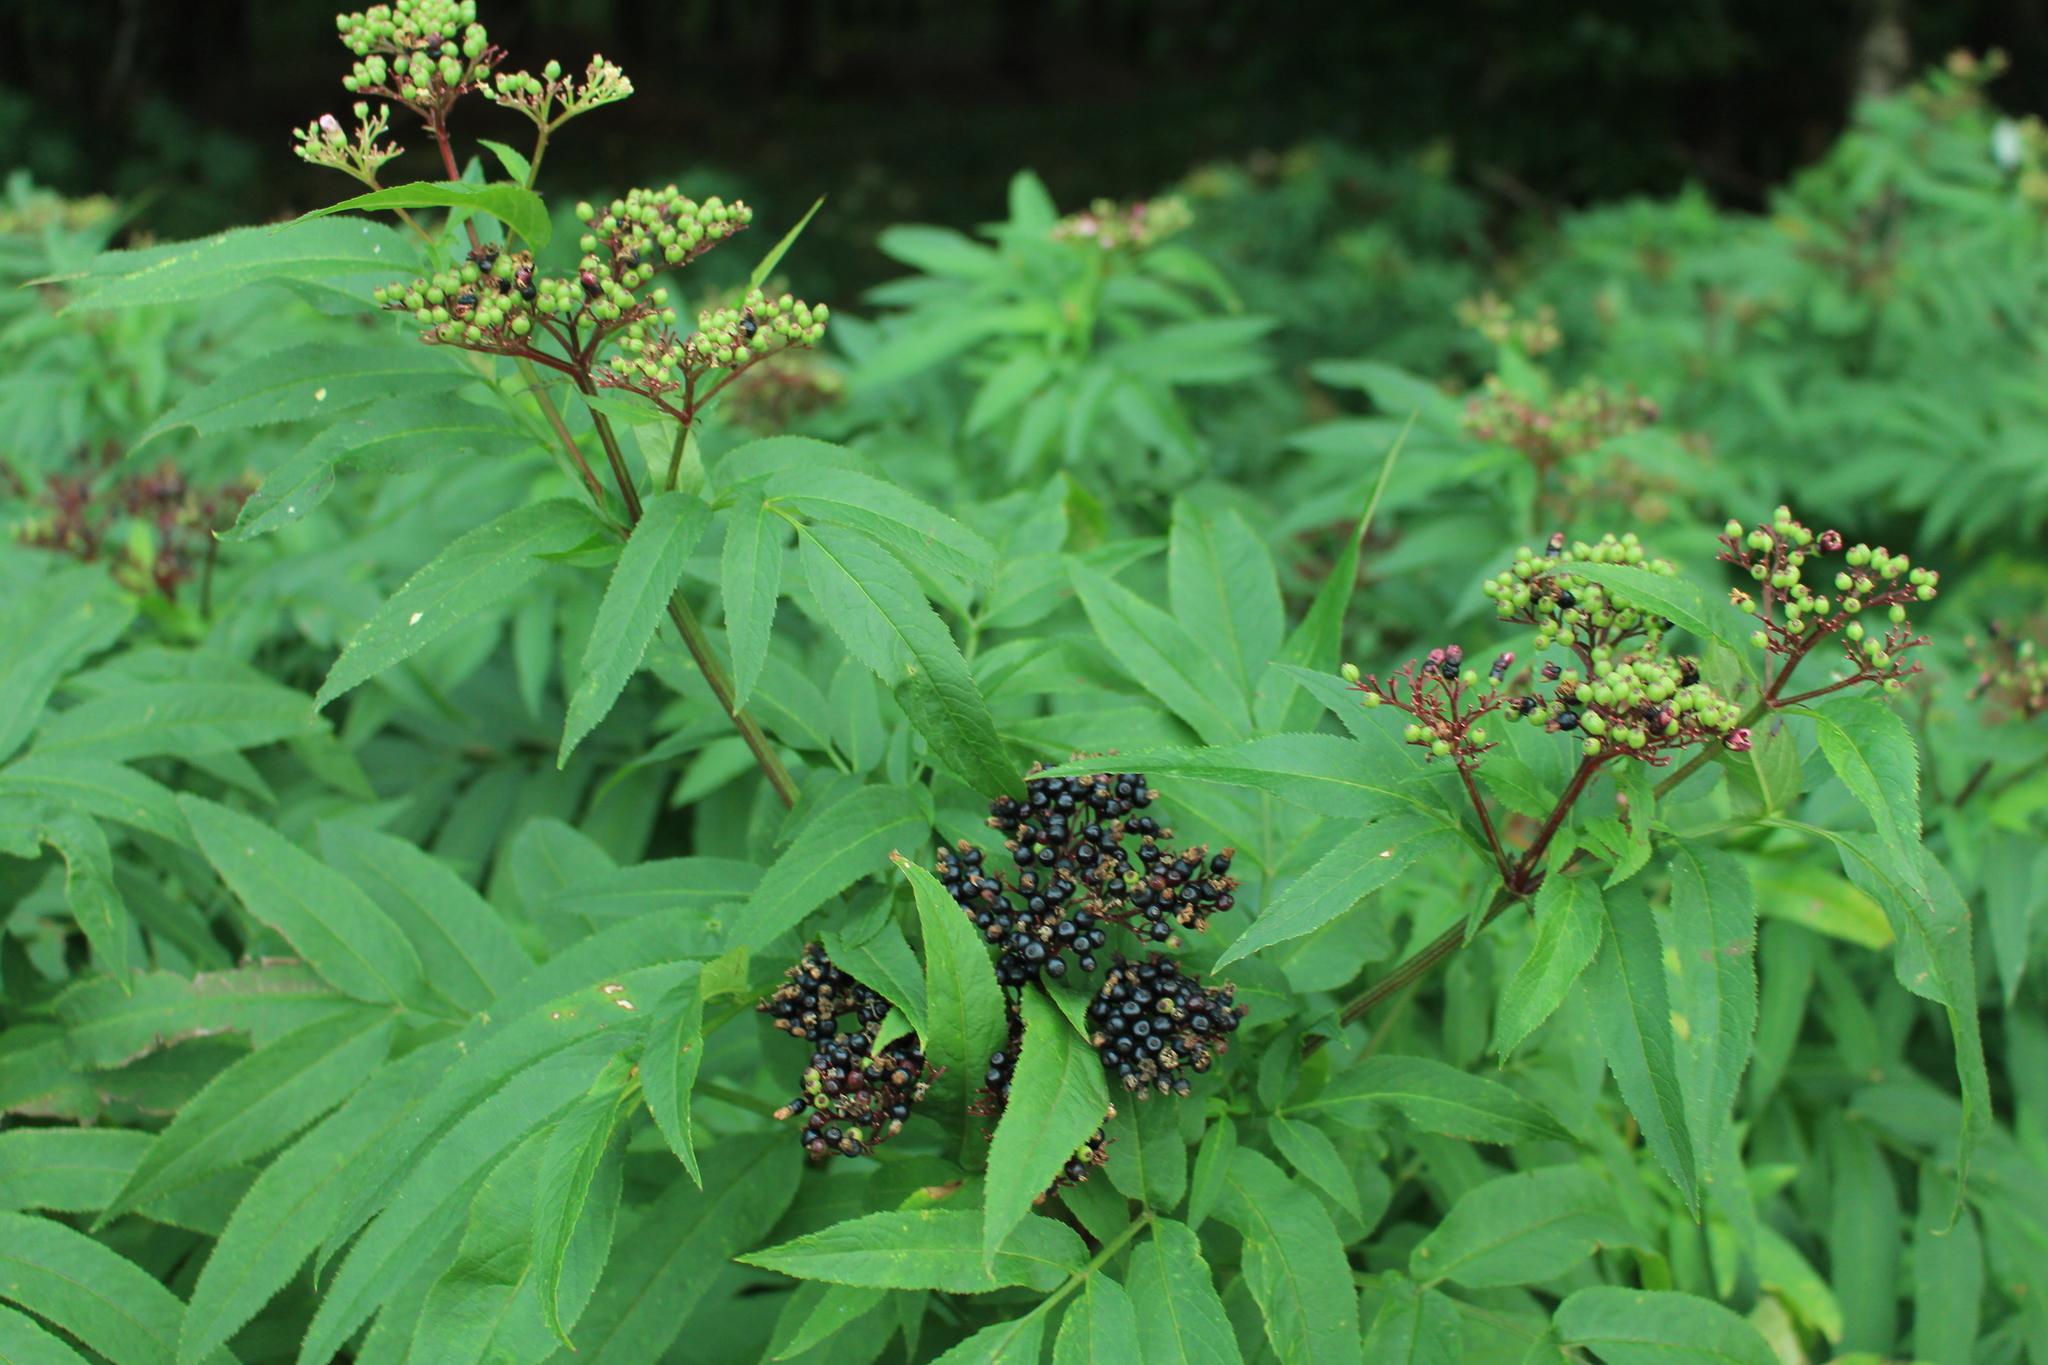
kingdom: Plantae
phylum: Tracheophyta
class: Magnoliopsida
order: Dipsacales
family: Viburnaceae
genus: Sambucus
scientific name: Sambucus ebulus
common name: Dwarf elder
